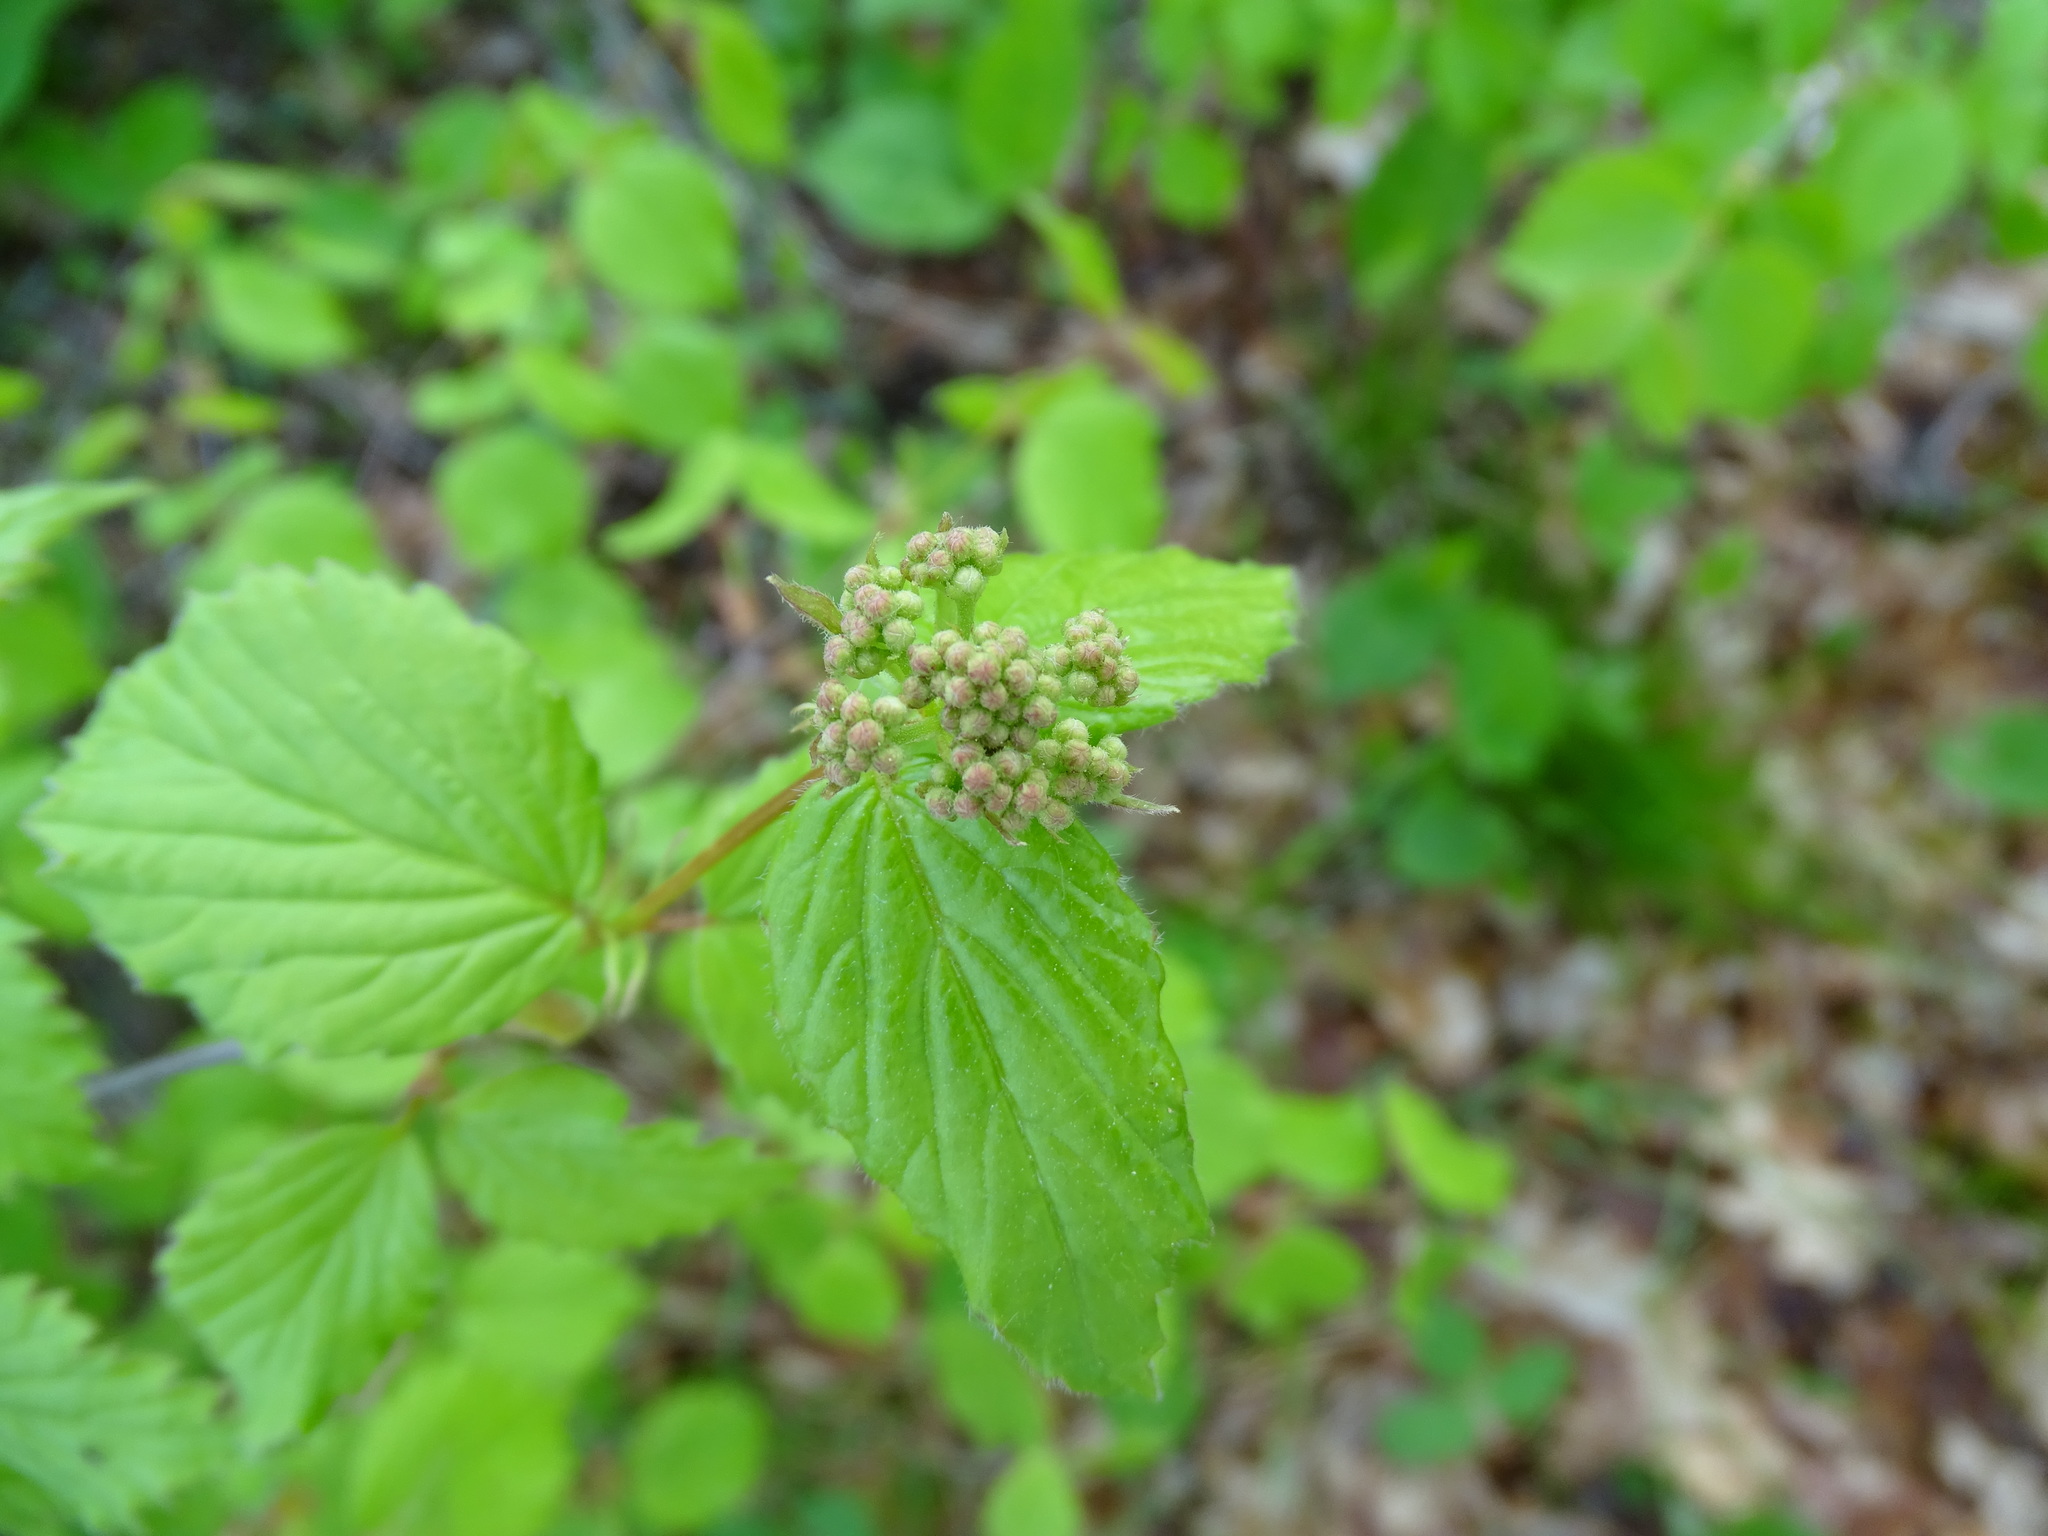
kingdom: Plantae
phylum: Tracheophyta
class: Magnoliopsida
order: Dipsacales
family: Viburnaceae
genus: Viburnum
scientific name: Viburnum rafinesqueanum
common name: Downy arrow-wood
